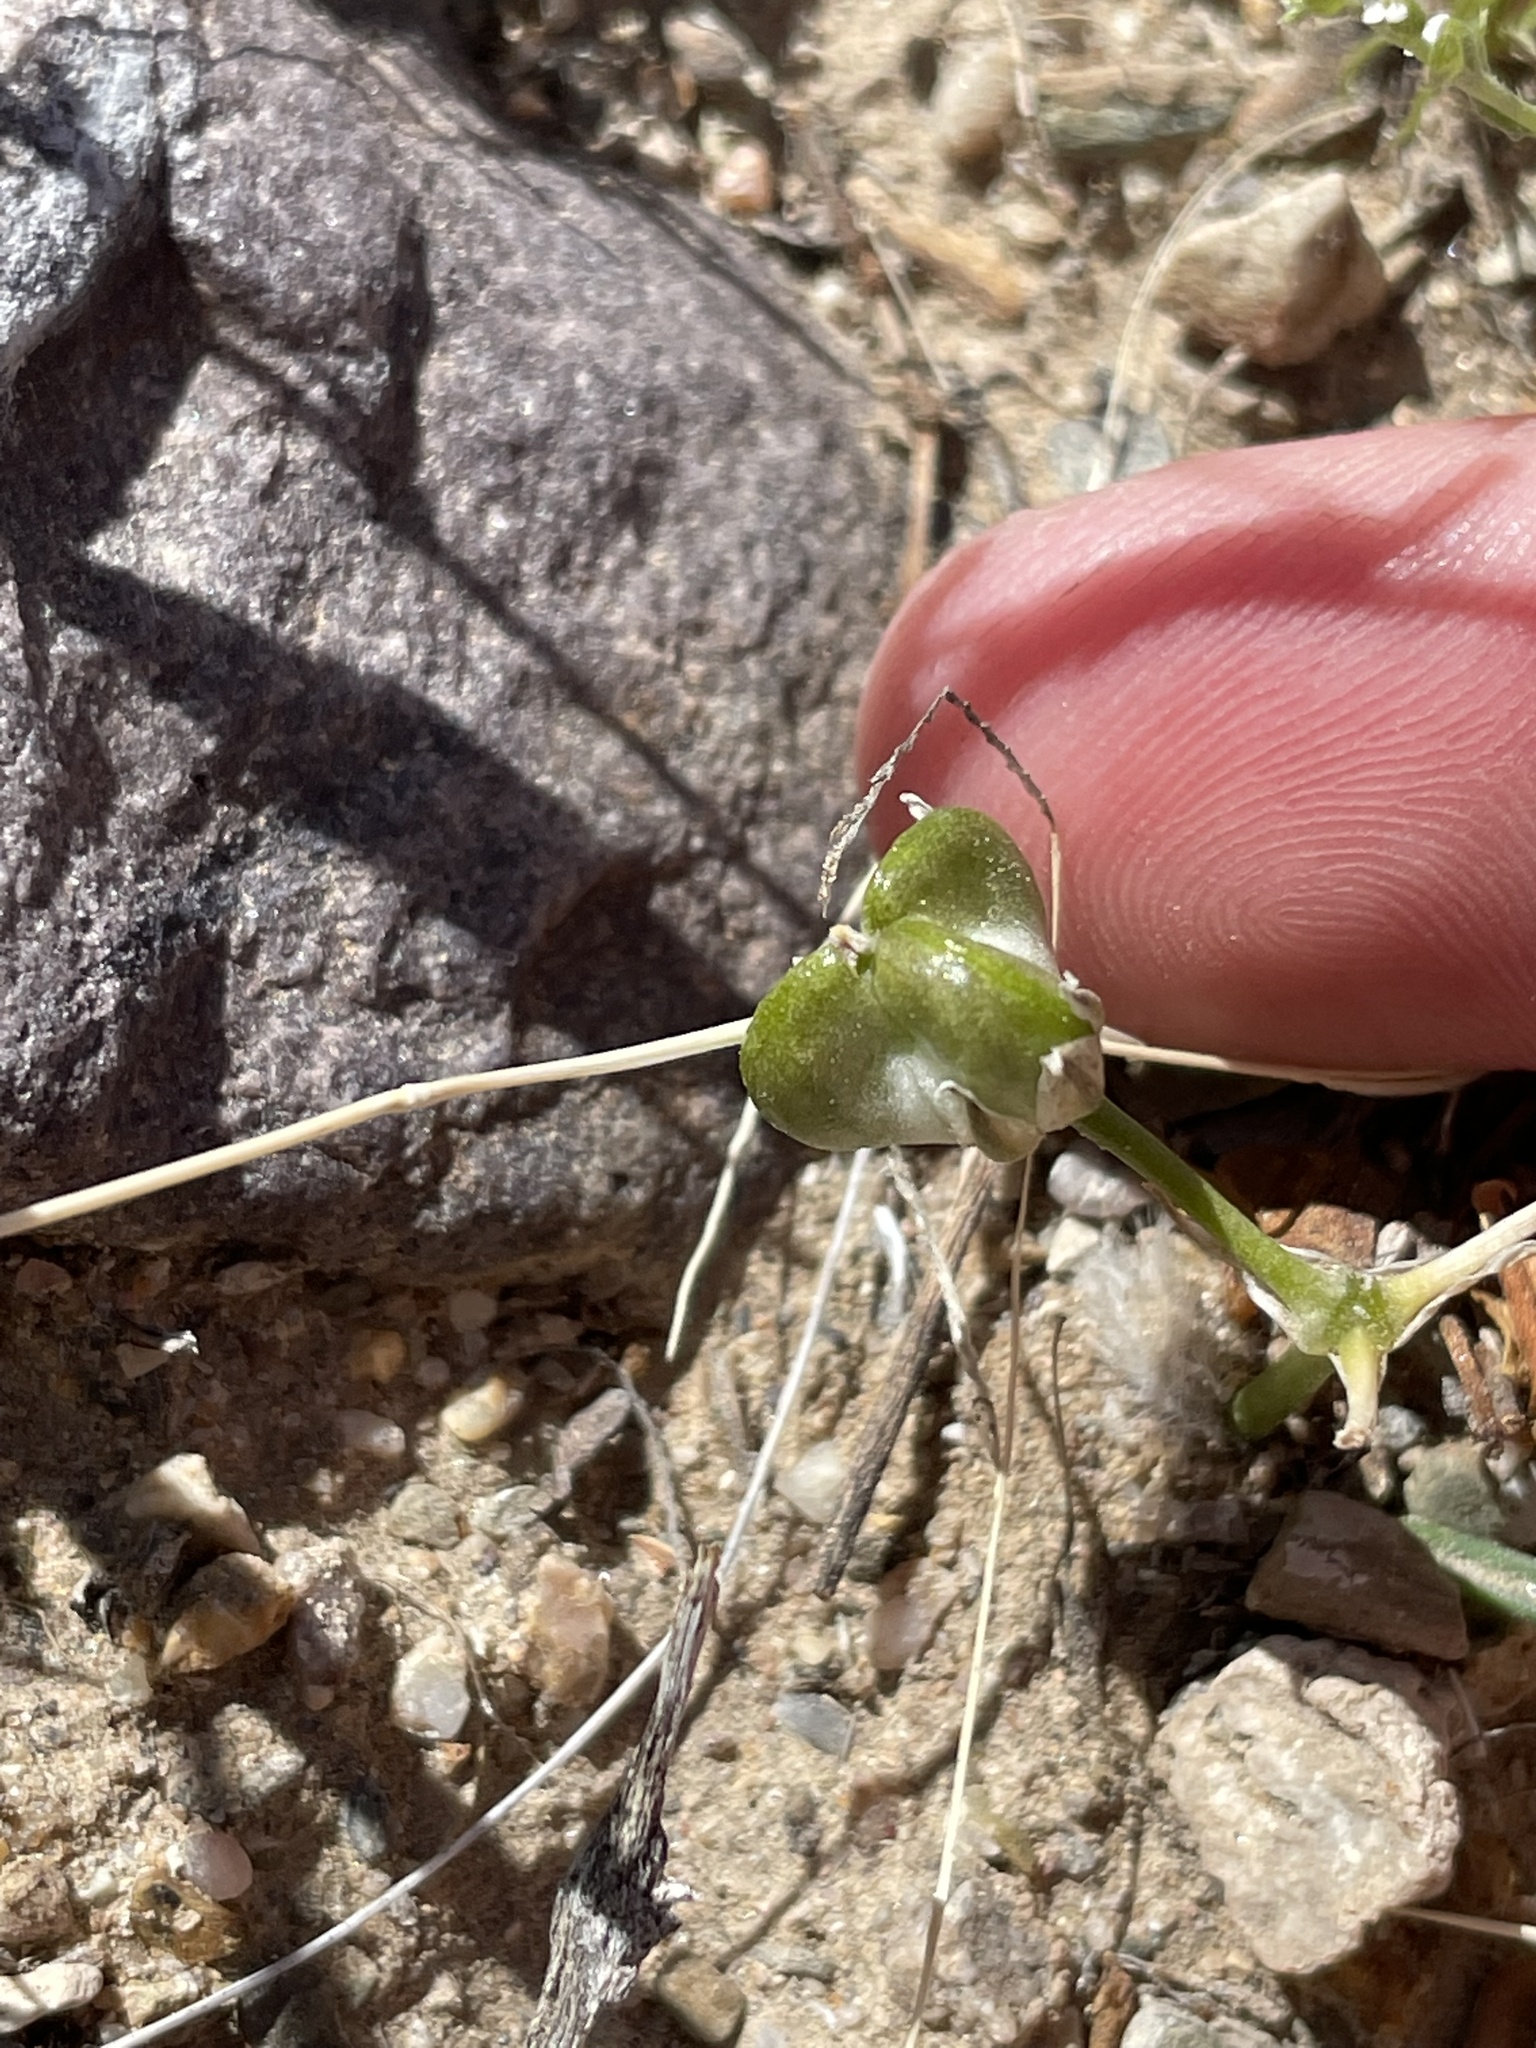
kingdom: Plantae
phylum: Tracheophyta
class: Liliopsida
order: Asparagales
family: Asparagaceae
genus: Muilla
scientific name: Muilla coronata
